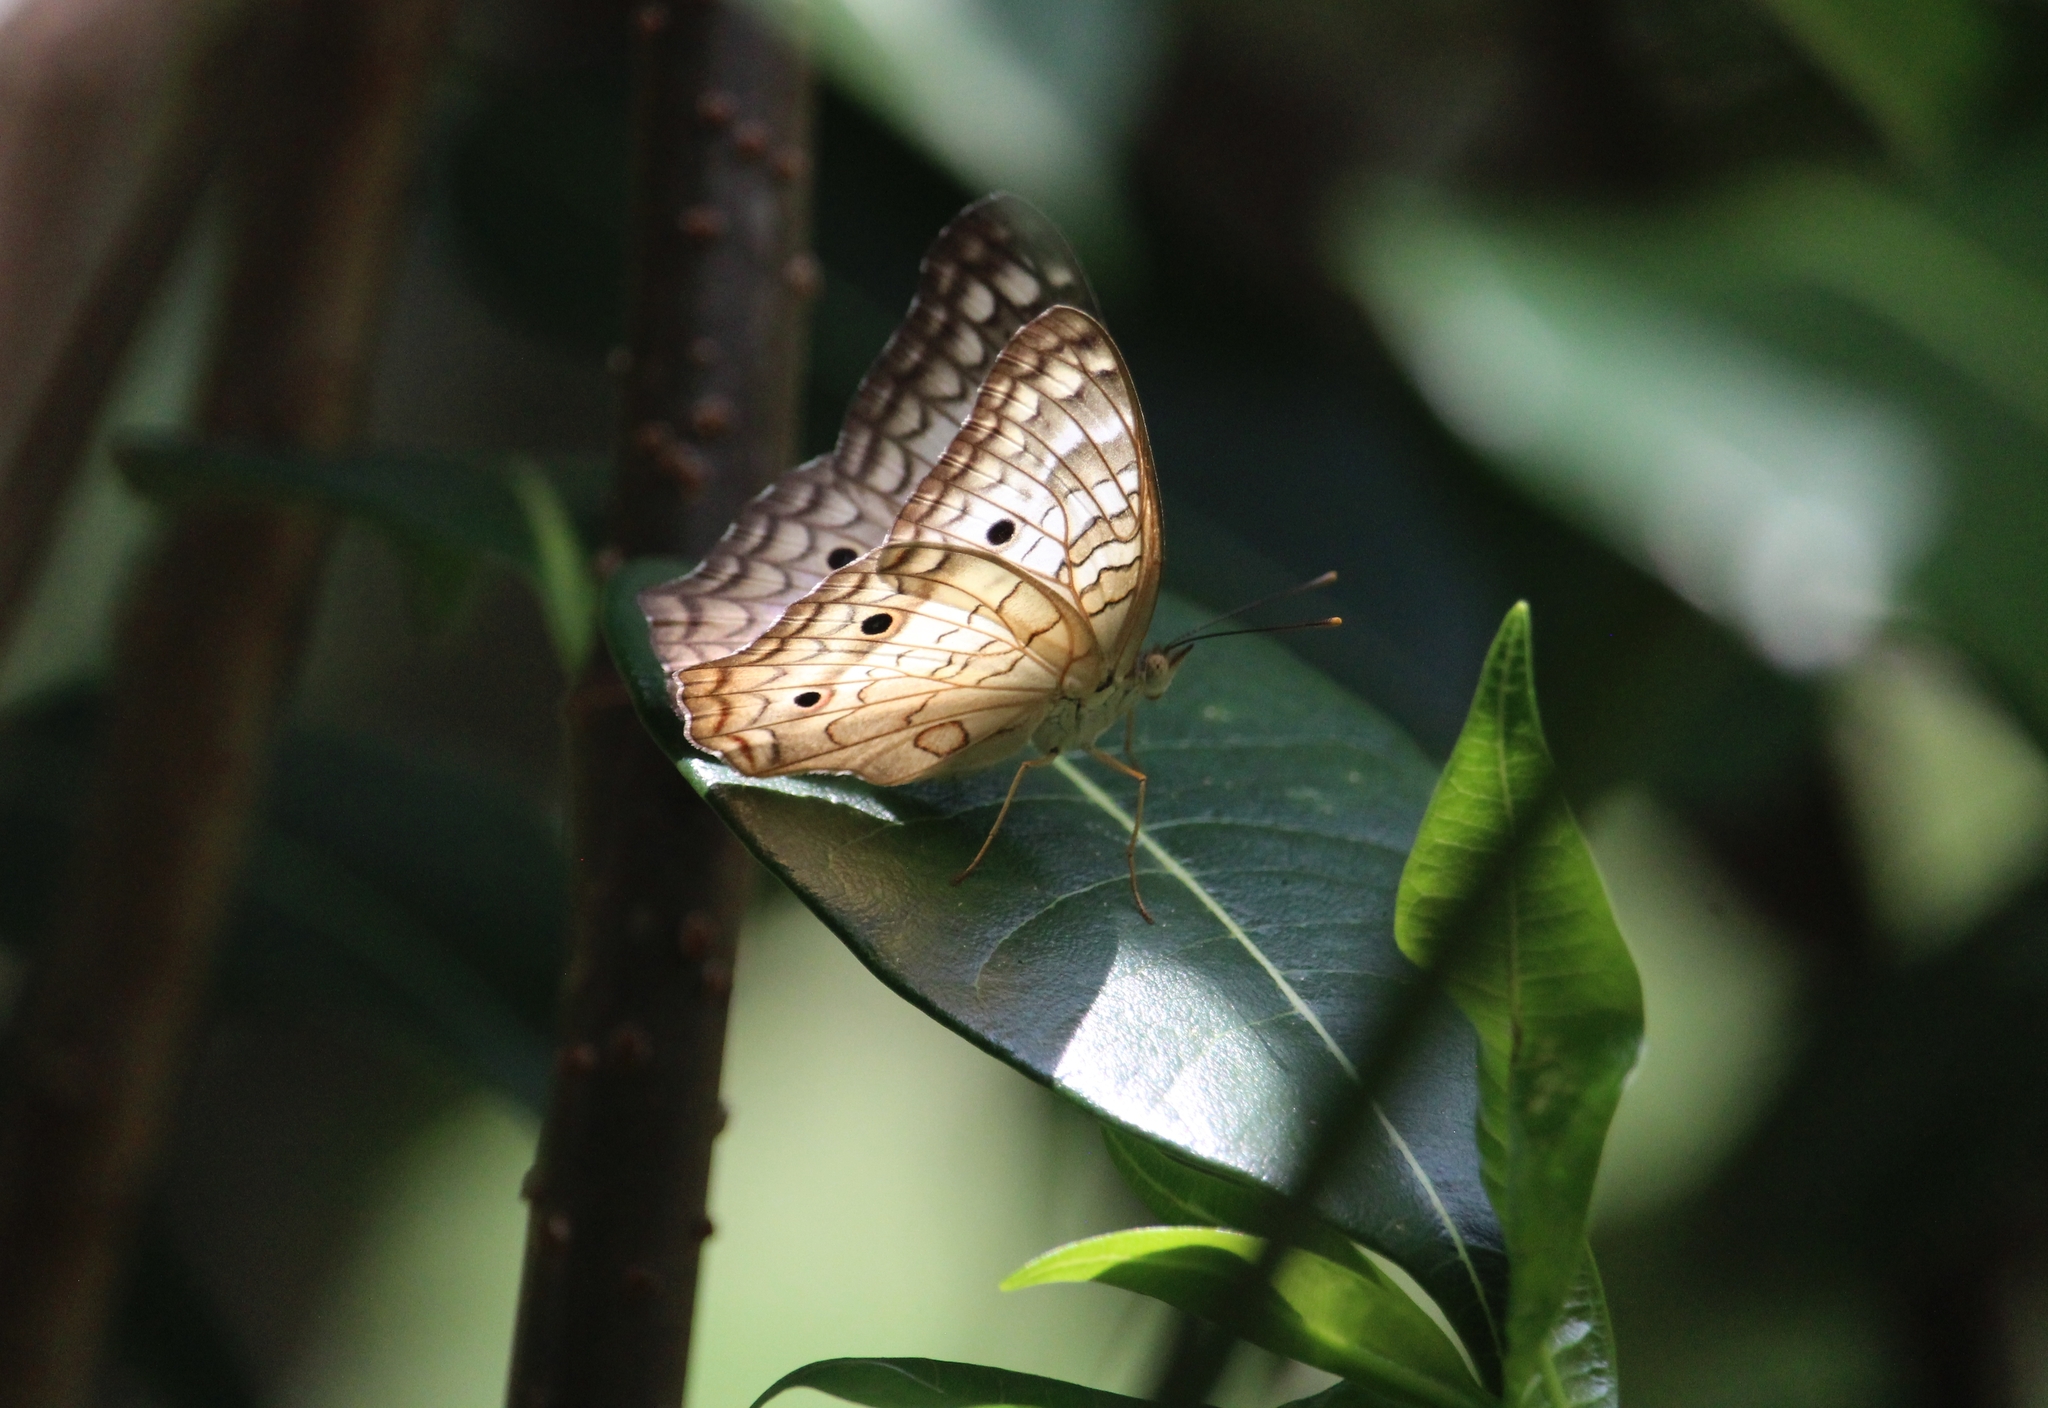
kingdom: Animalia
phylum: Arthropoda
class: Insecta
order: Lepidoptera
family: Nymphalidae
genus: Anartia
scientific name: Anartia jatrophae
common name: White peacock
